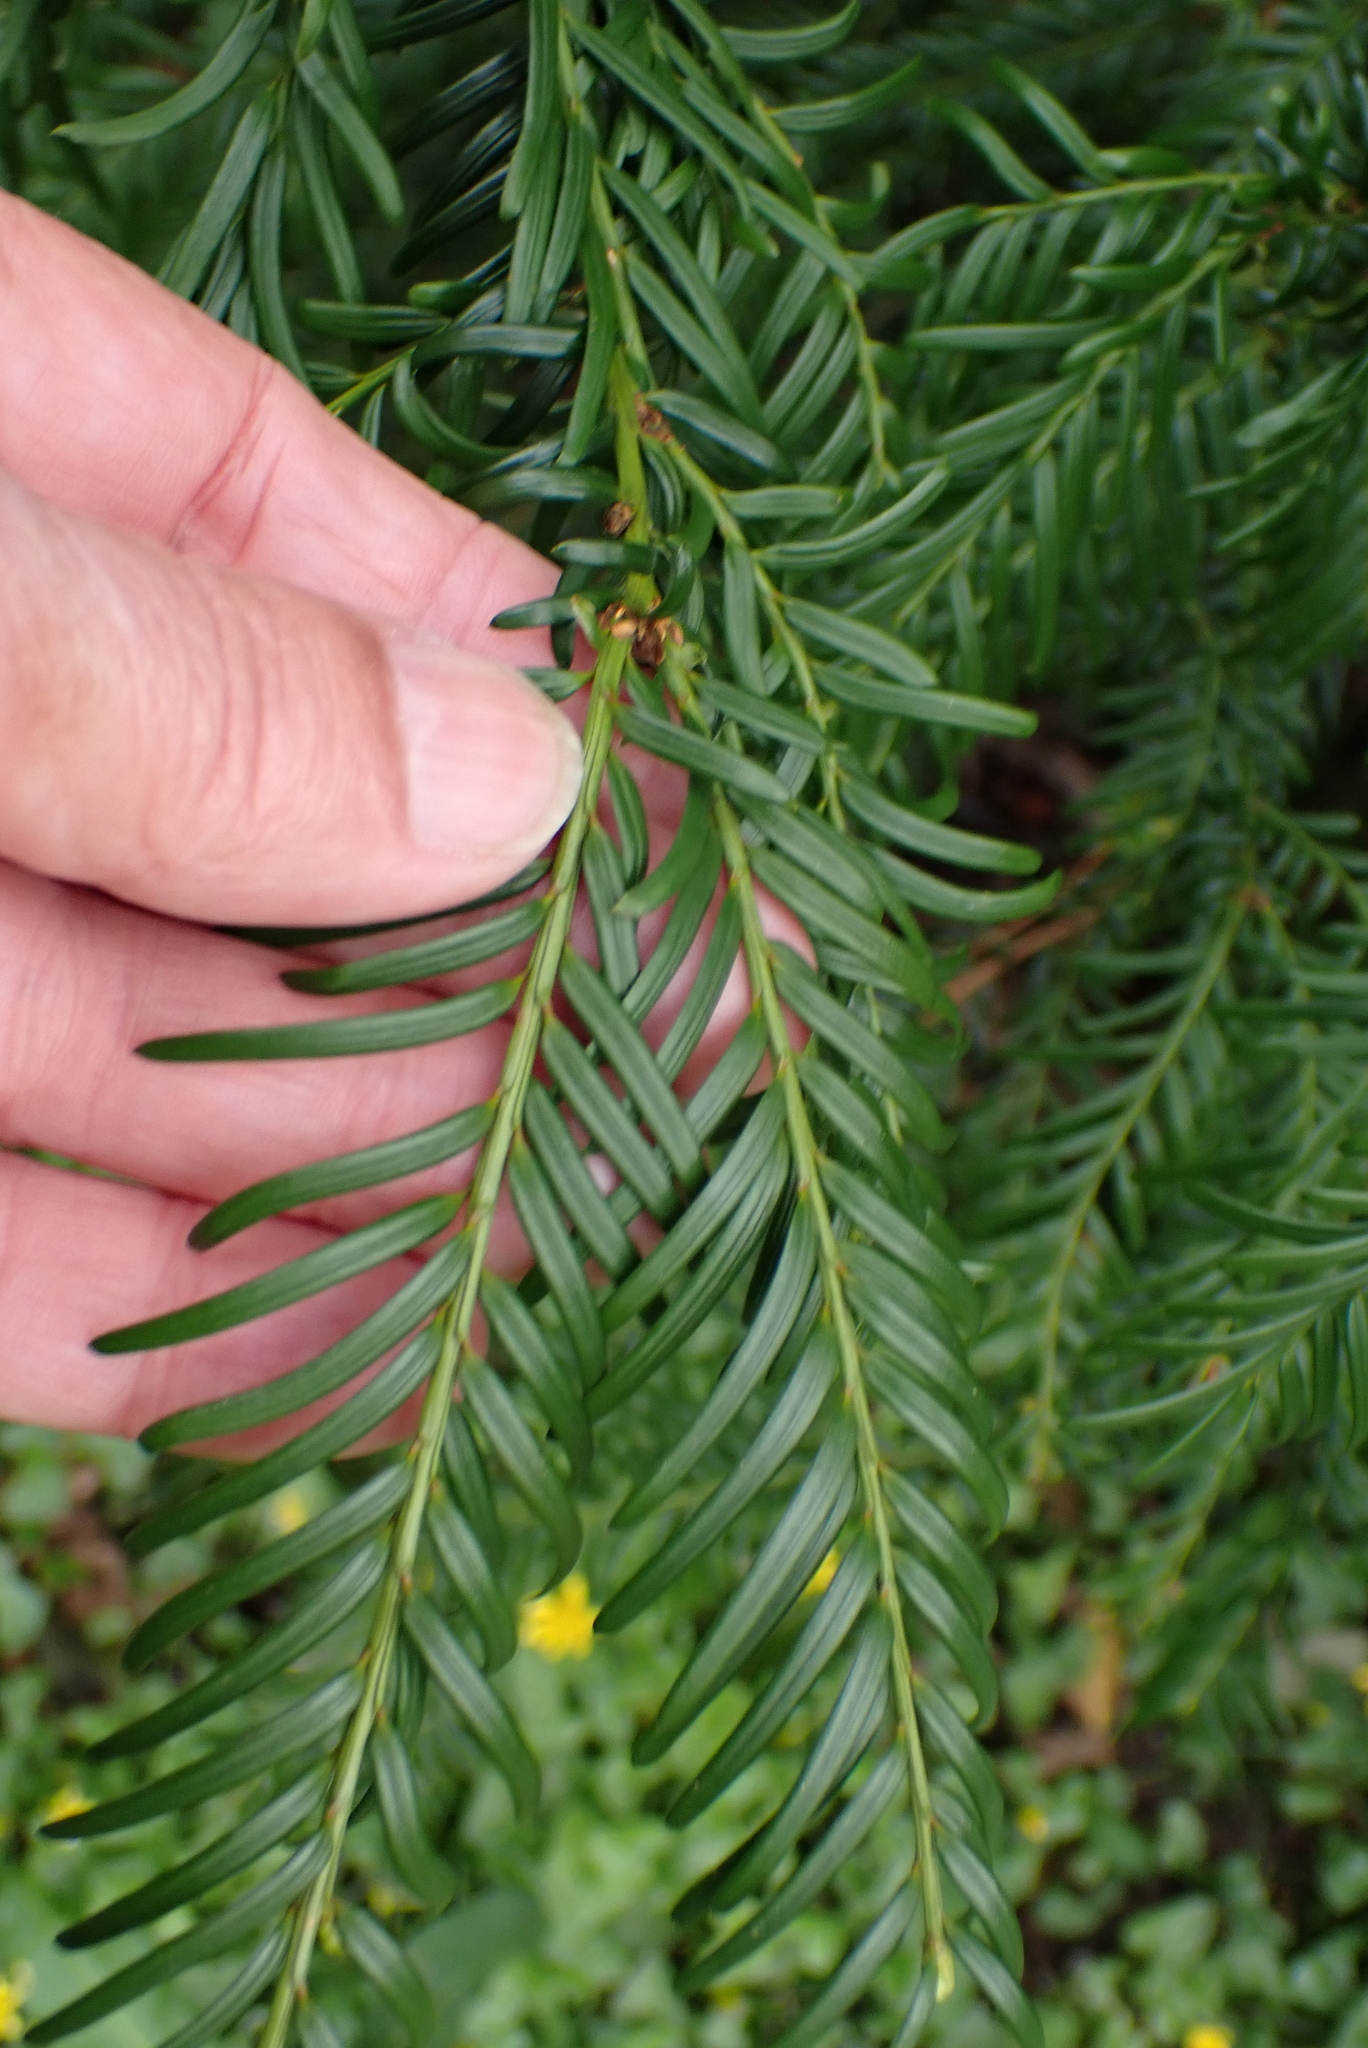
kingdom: Plantae
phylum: Tracheophyta
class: Pinopsida
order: Pinales
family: Taxaceae
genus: Taxus
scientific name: Taxus baccata
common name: Yew
